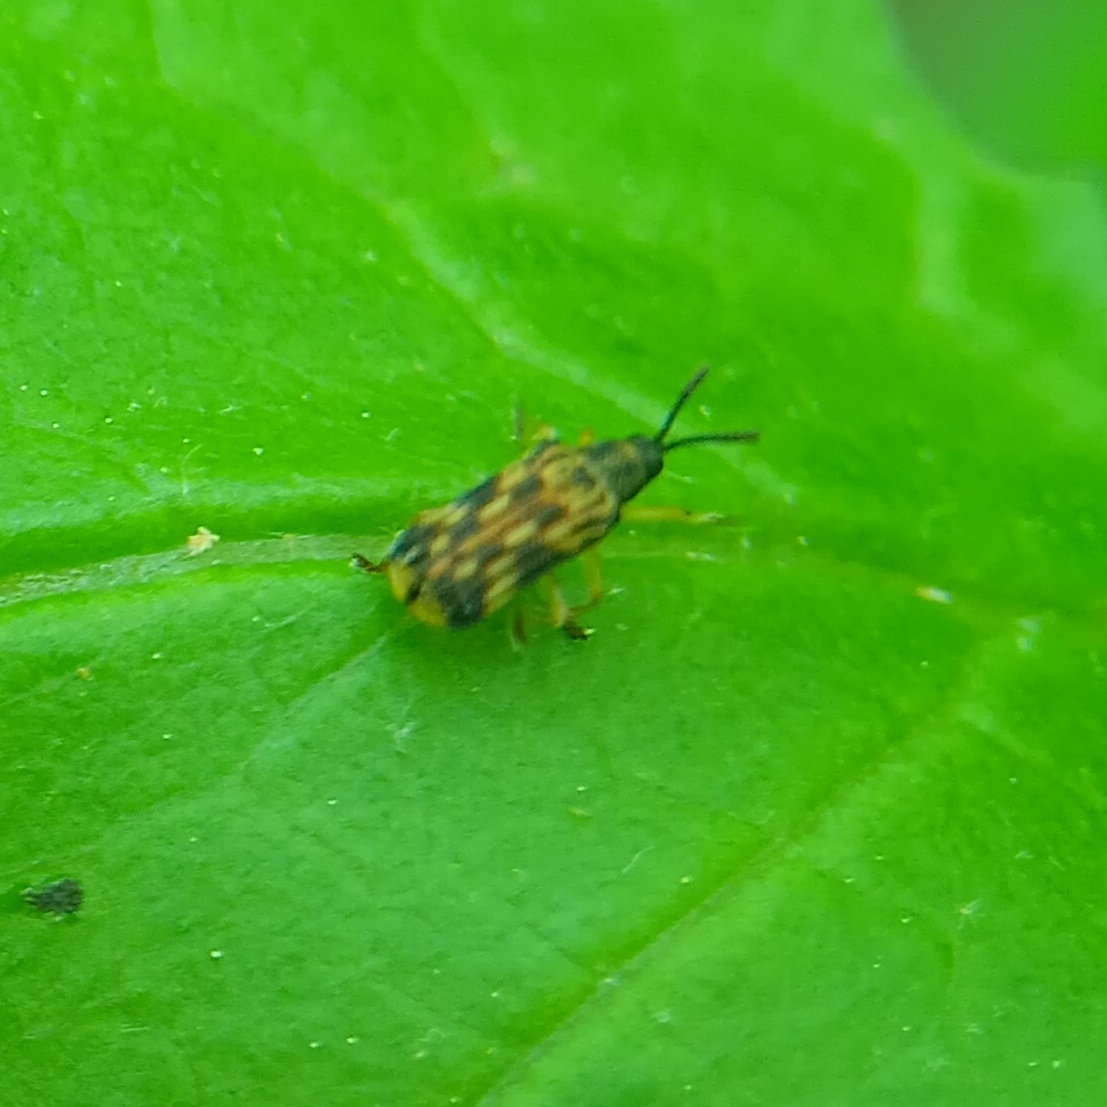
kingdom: Animalia
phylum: Arthropoda
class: Insecta
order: Coleoptera
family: Chrysomelidae
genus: Sumitrosis
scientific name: Sumitrosis inaequalis
